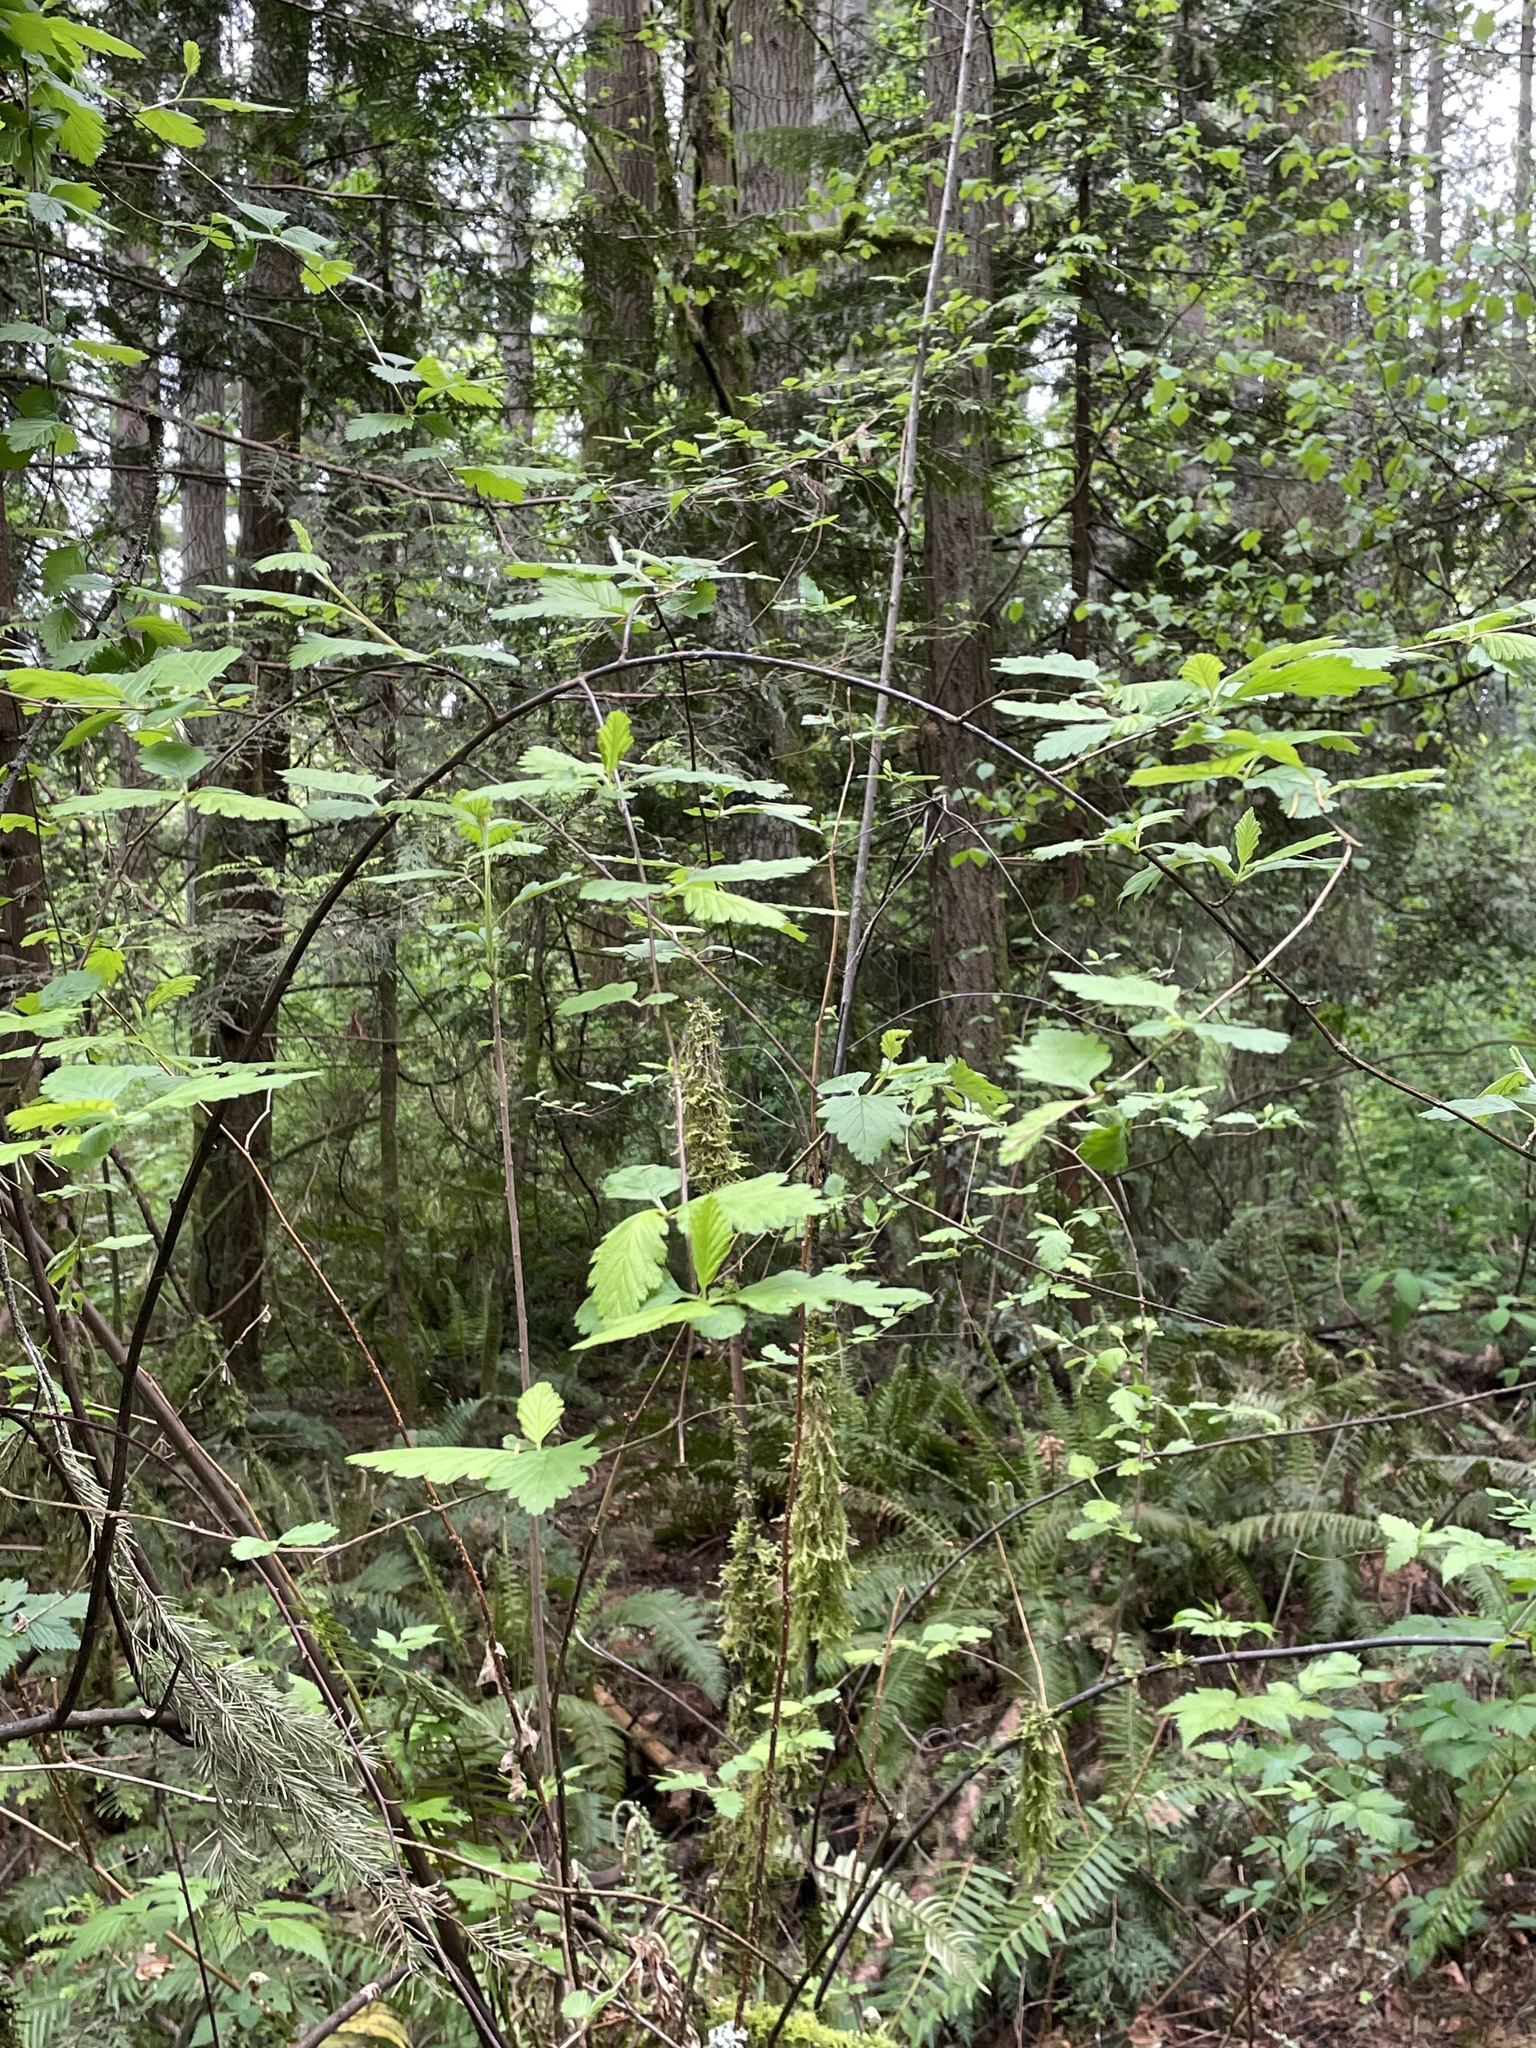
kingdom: Plantae
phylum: Tracheophyta
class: Magnoliopsida
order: Rosales
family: Rosaceae
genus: Holodiscus
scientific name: Holodiscus discolor
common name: Oceanspray
